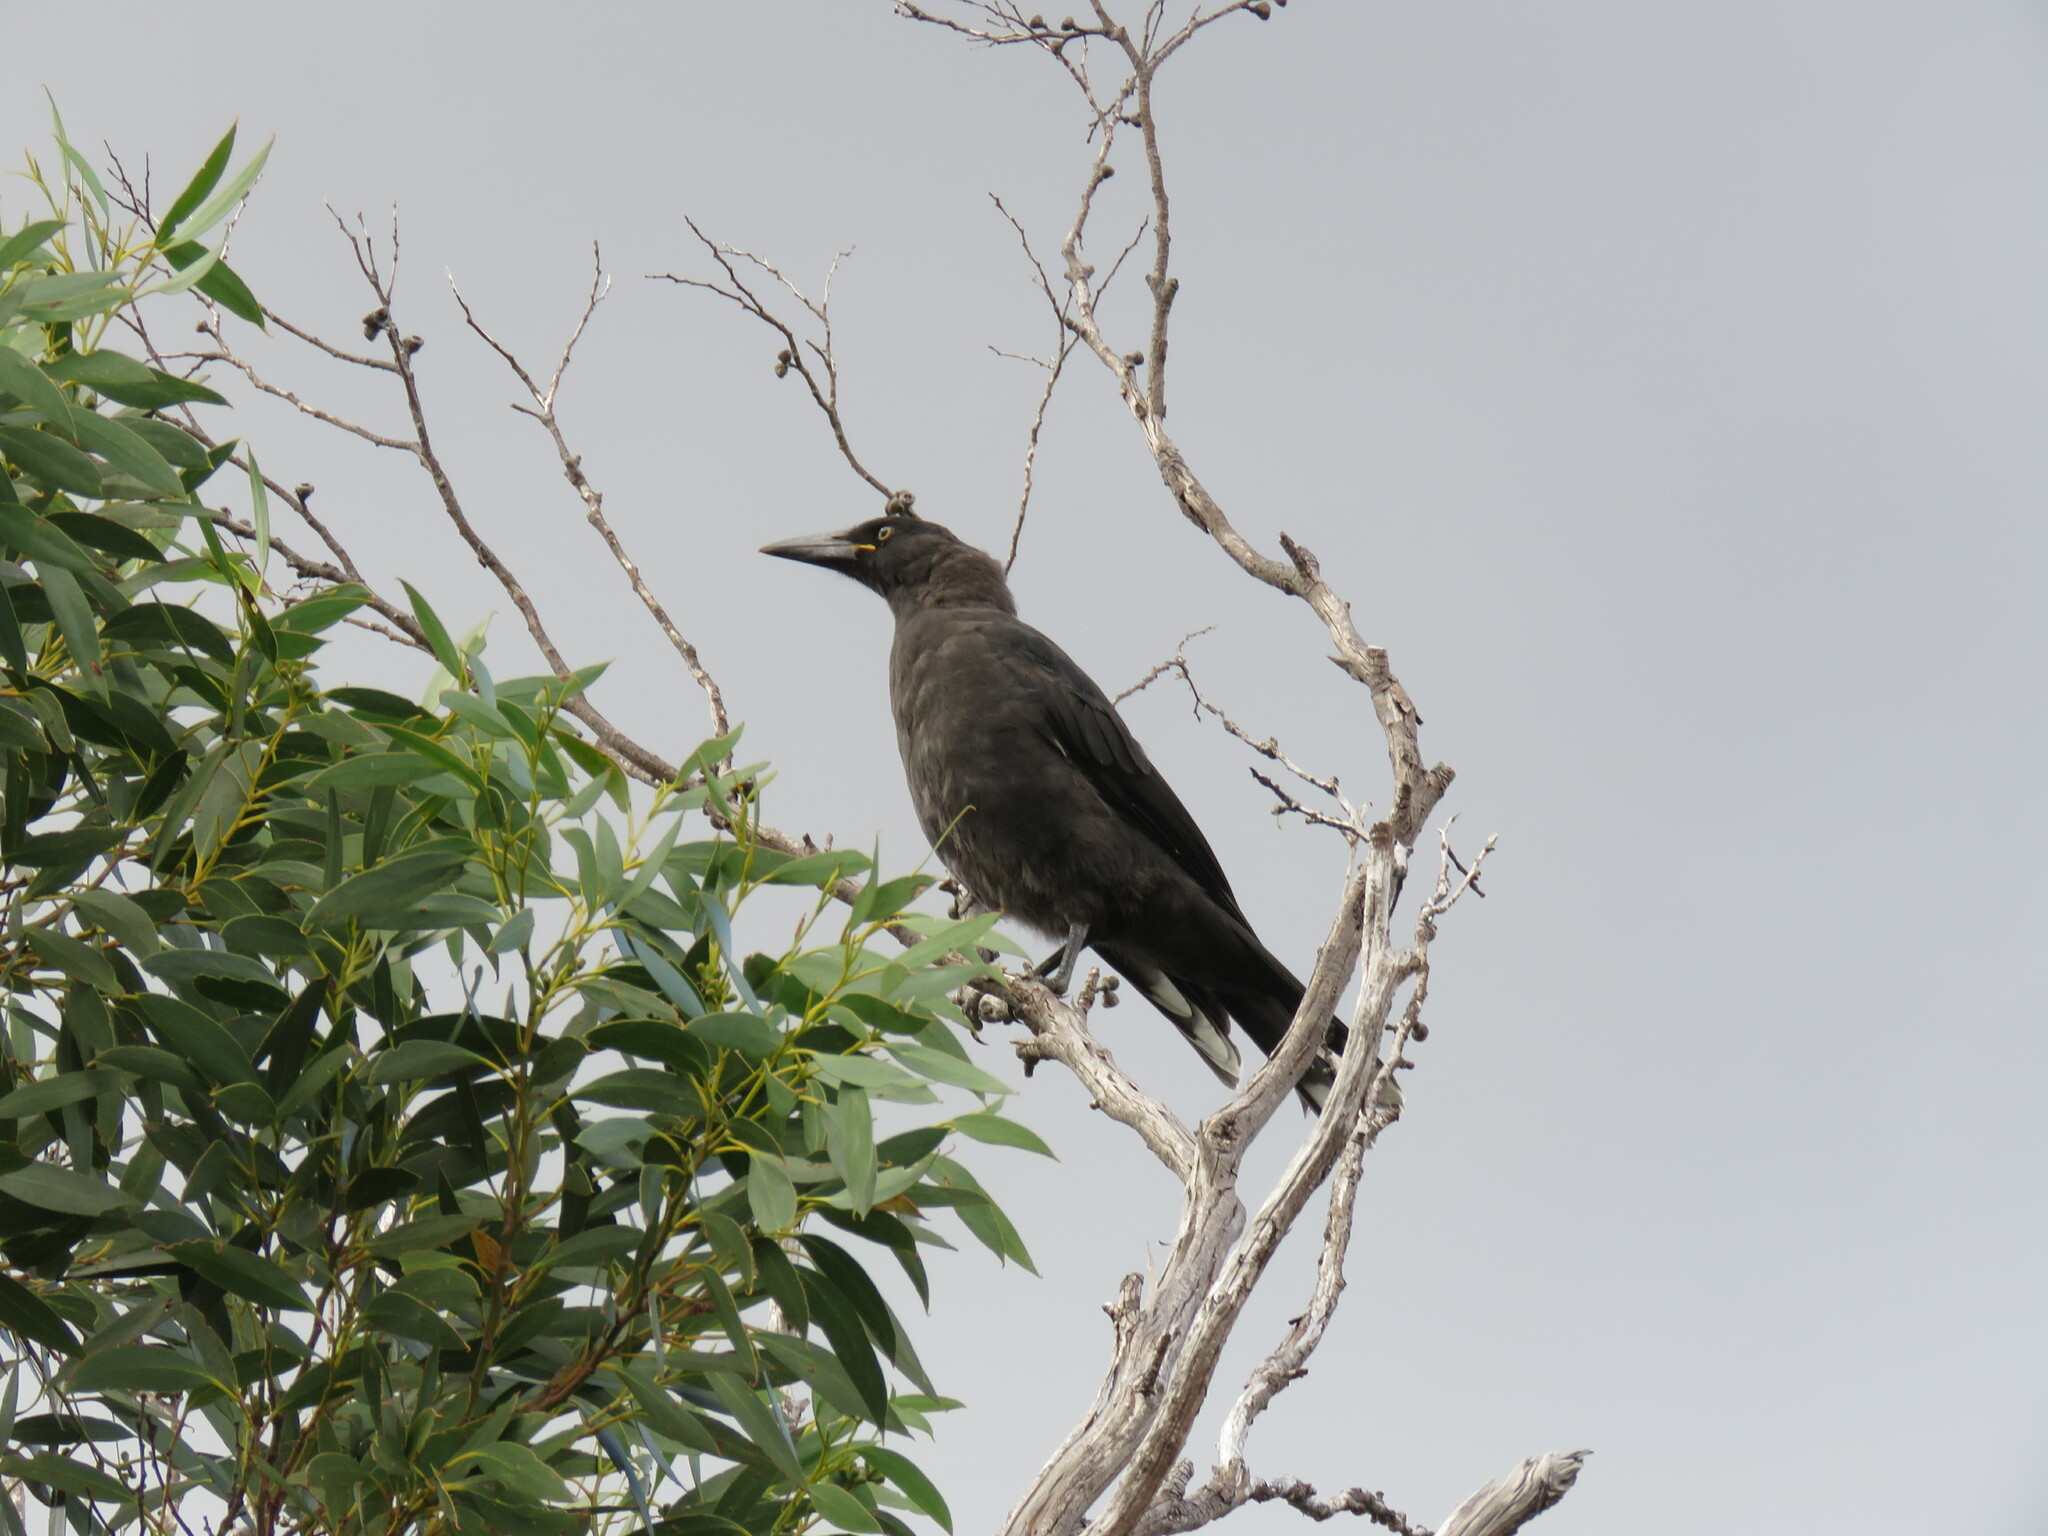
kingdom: Animalia
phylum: Chordata
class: Aves
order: Passeriformes
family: Cracticidae
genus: Strepera
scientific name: Strepera fuliginosa
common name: Black currawong
